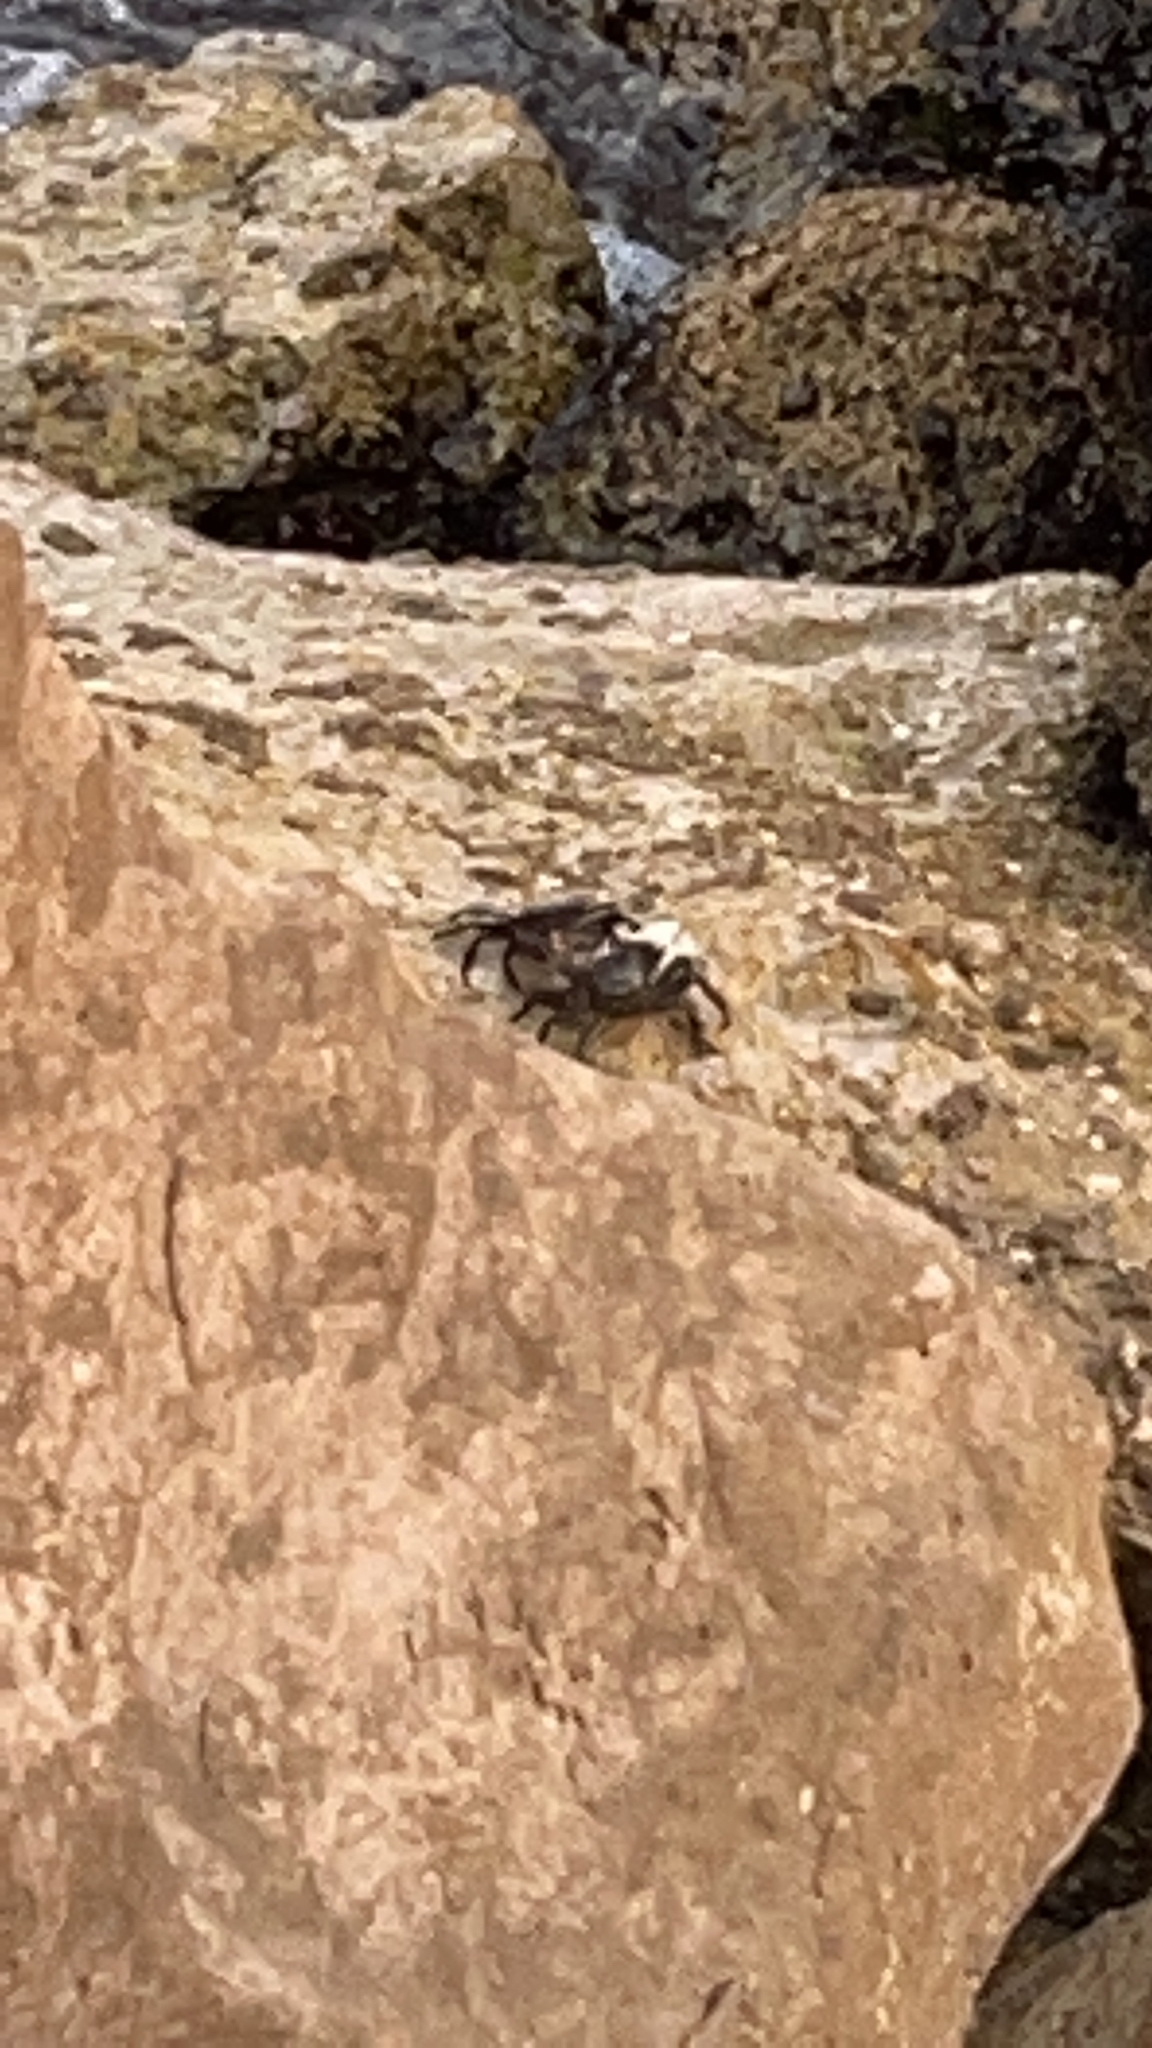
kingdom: Animalia
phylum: Arthropoda
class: Malacostraca
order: Decapoda
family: Grapsidae
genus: Pachygrapsus
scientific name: Pachygrapsus marmoratus
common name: Marbled rock crab
